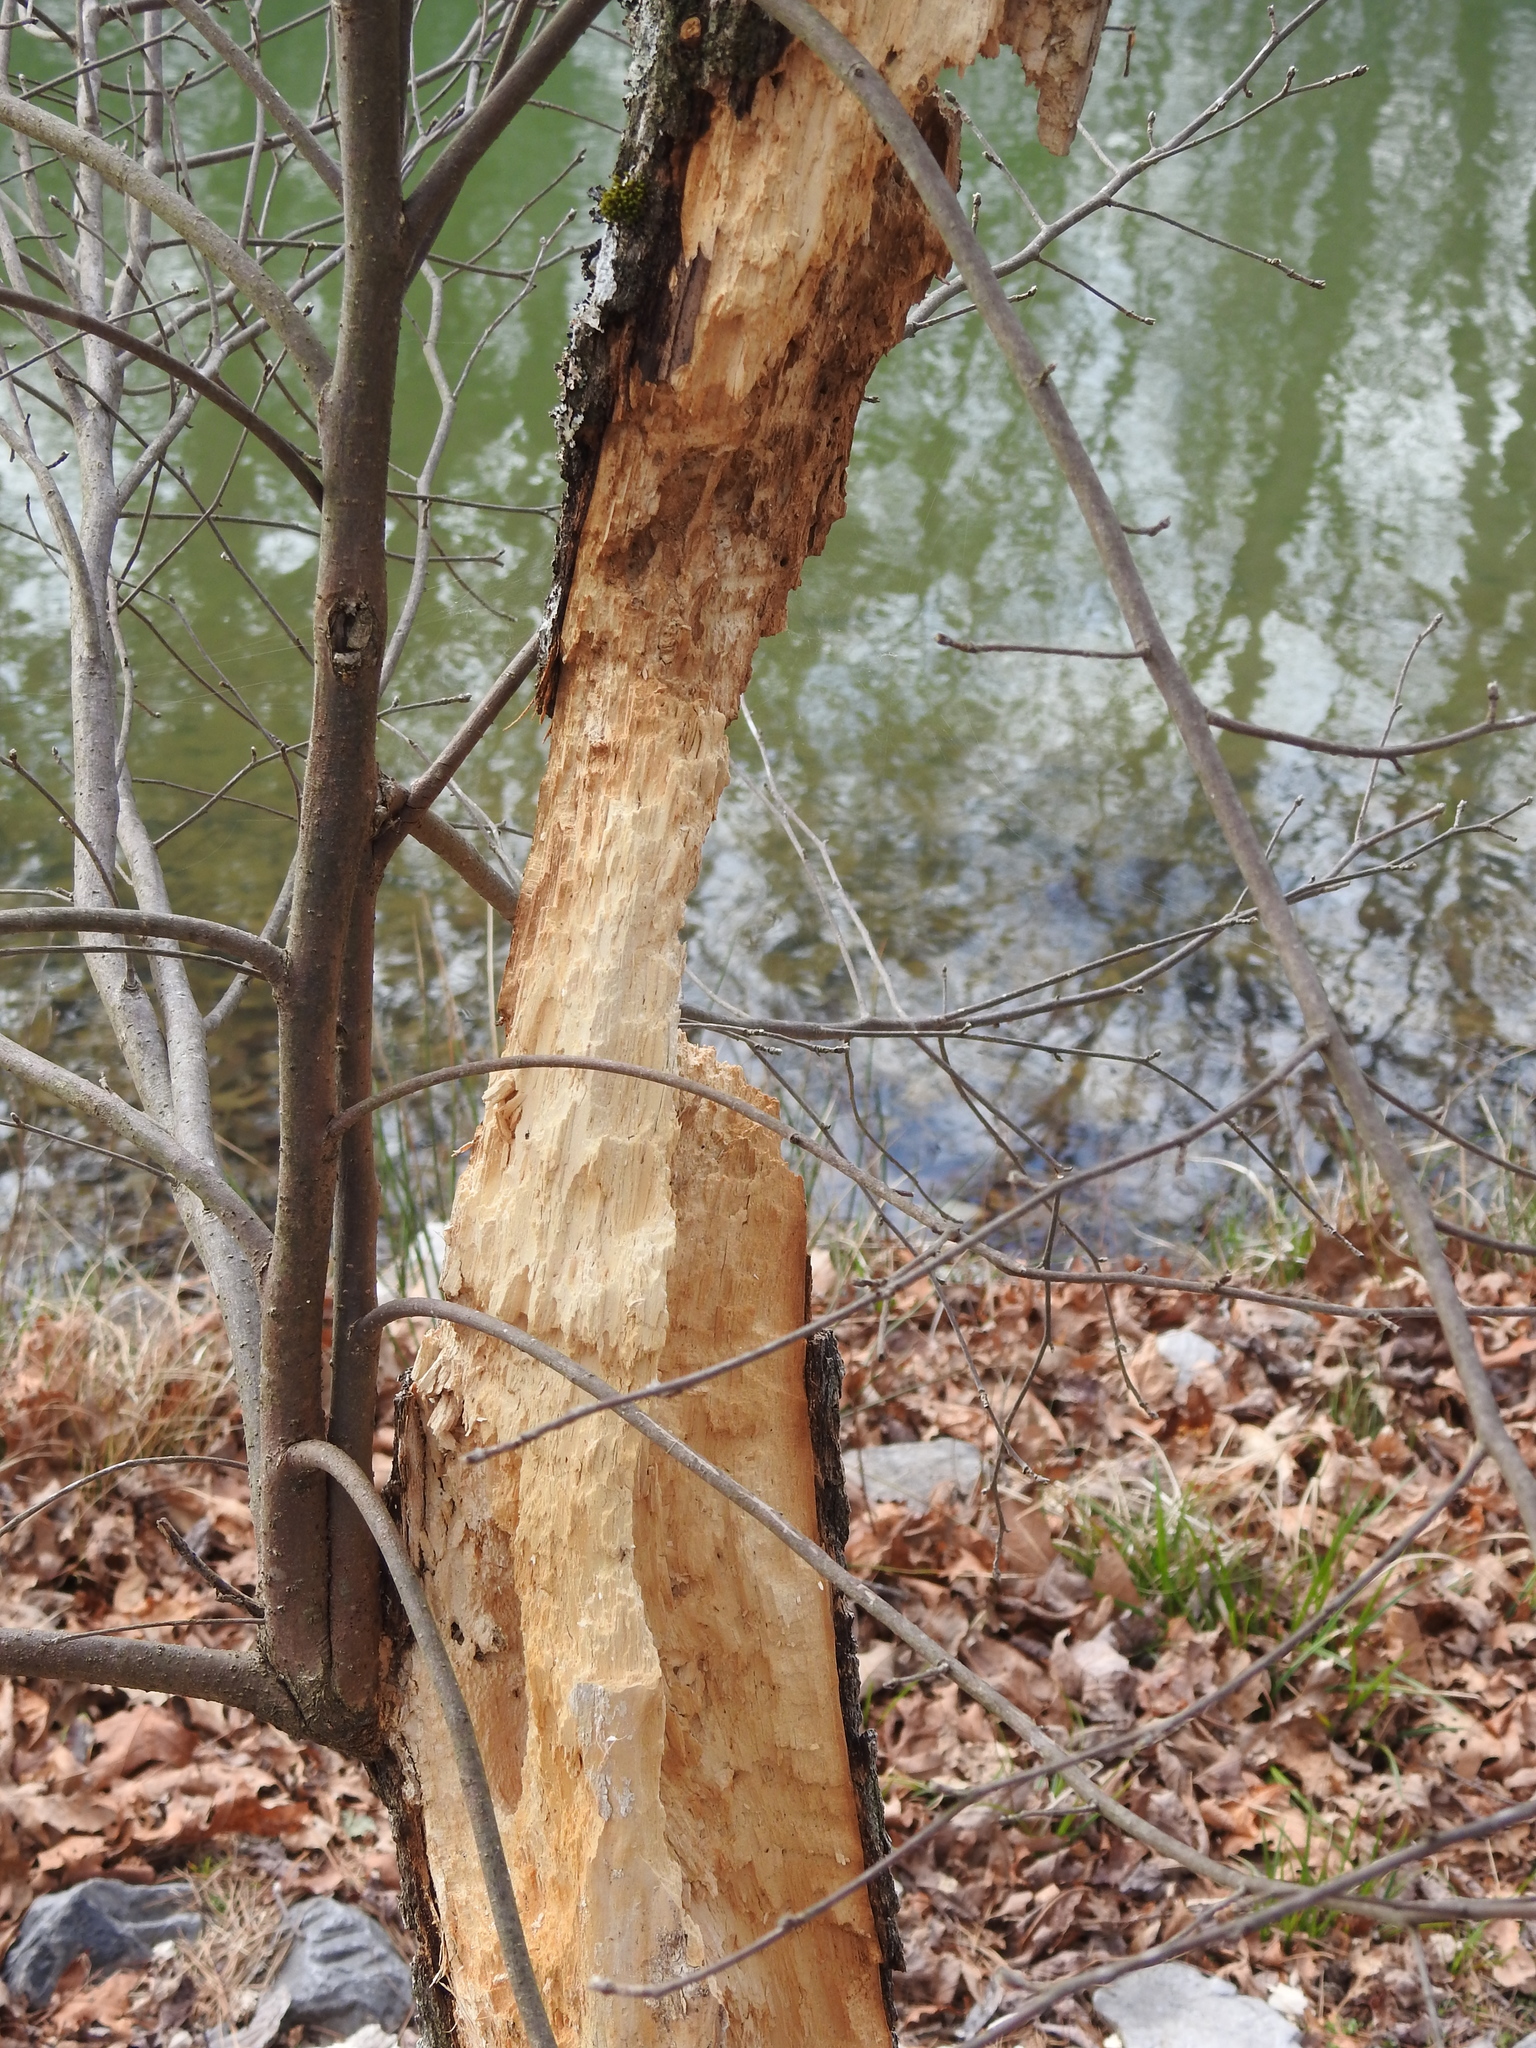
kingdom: Animalia
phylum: Chordata
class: Aves
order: Piciformes
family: Picidae
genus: Dryocopus
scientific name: Dryocopus pileatus
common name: Pileated woodpecker
